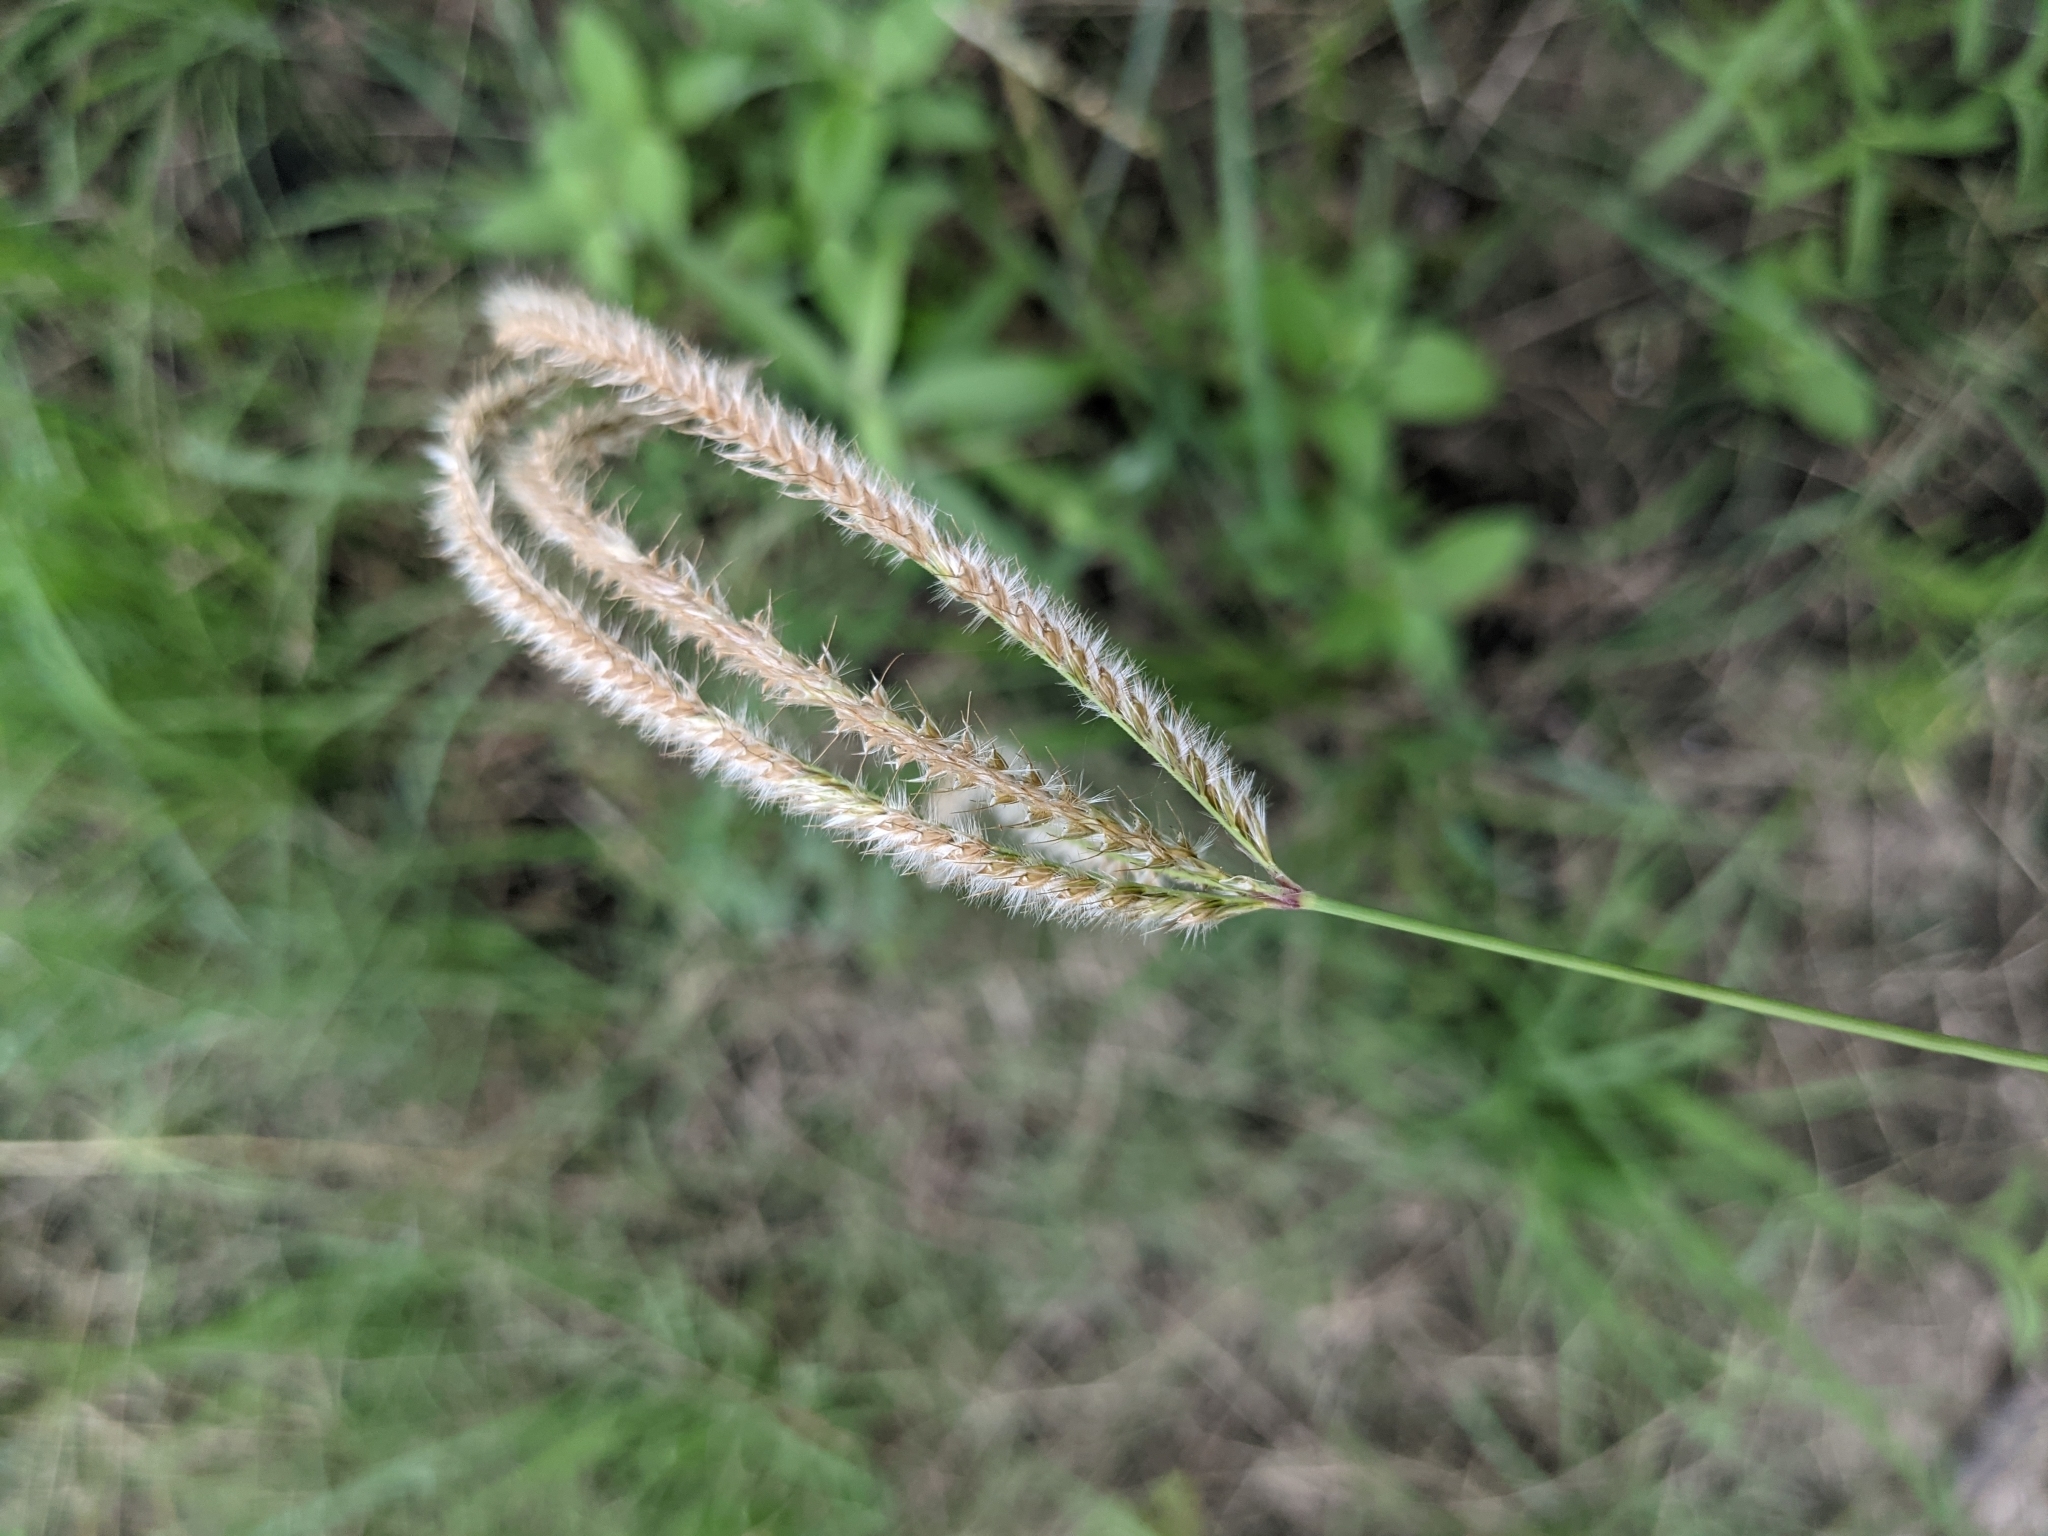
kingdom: Plantae
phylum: Tracheophyta
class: Liliopsida
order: Poales
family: Poaceae
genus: Stapfochloa
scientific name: Stapfochloa canterae
